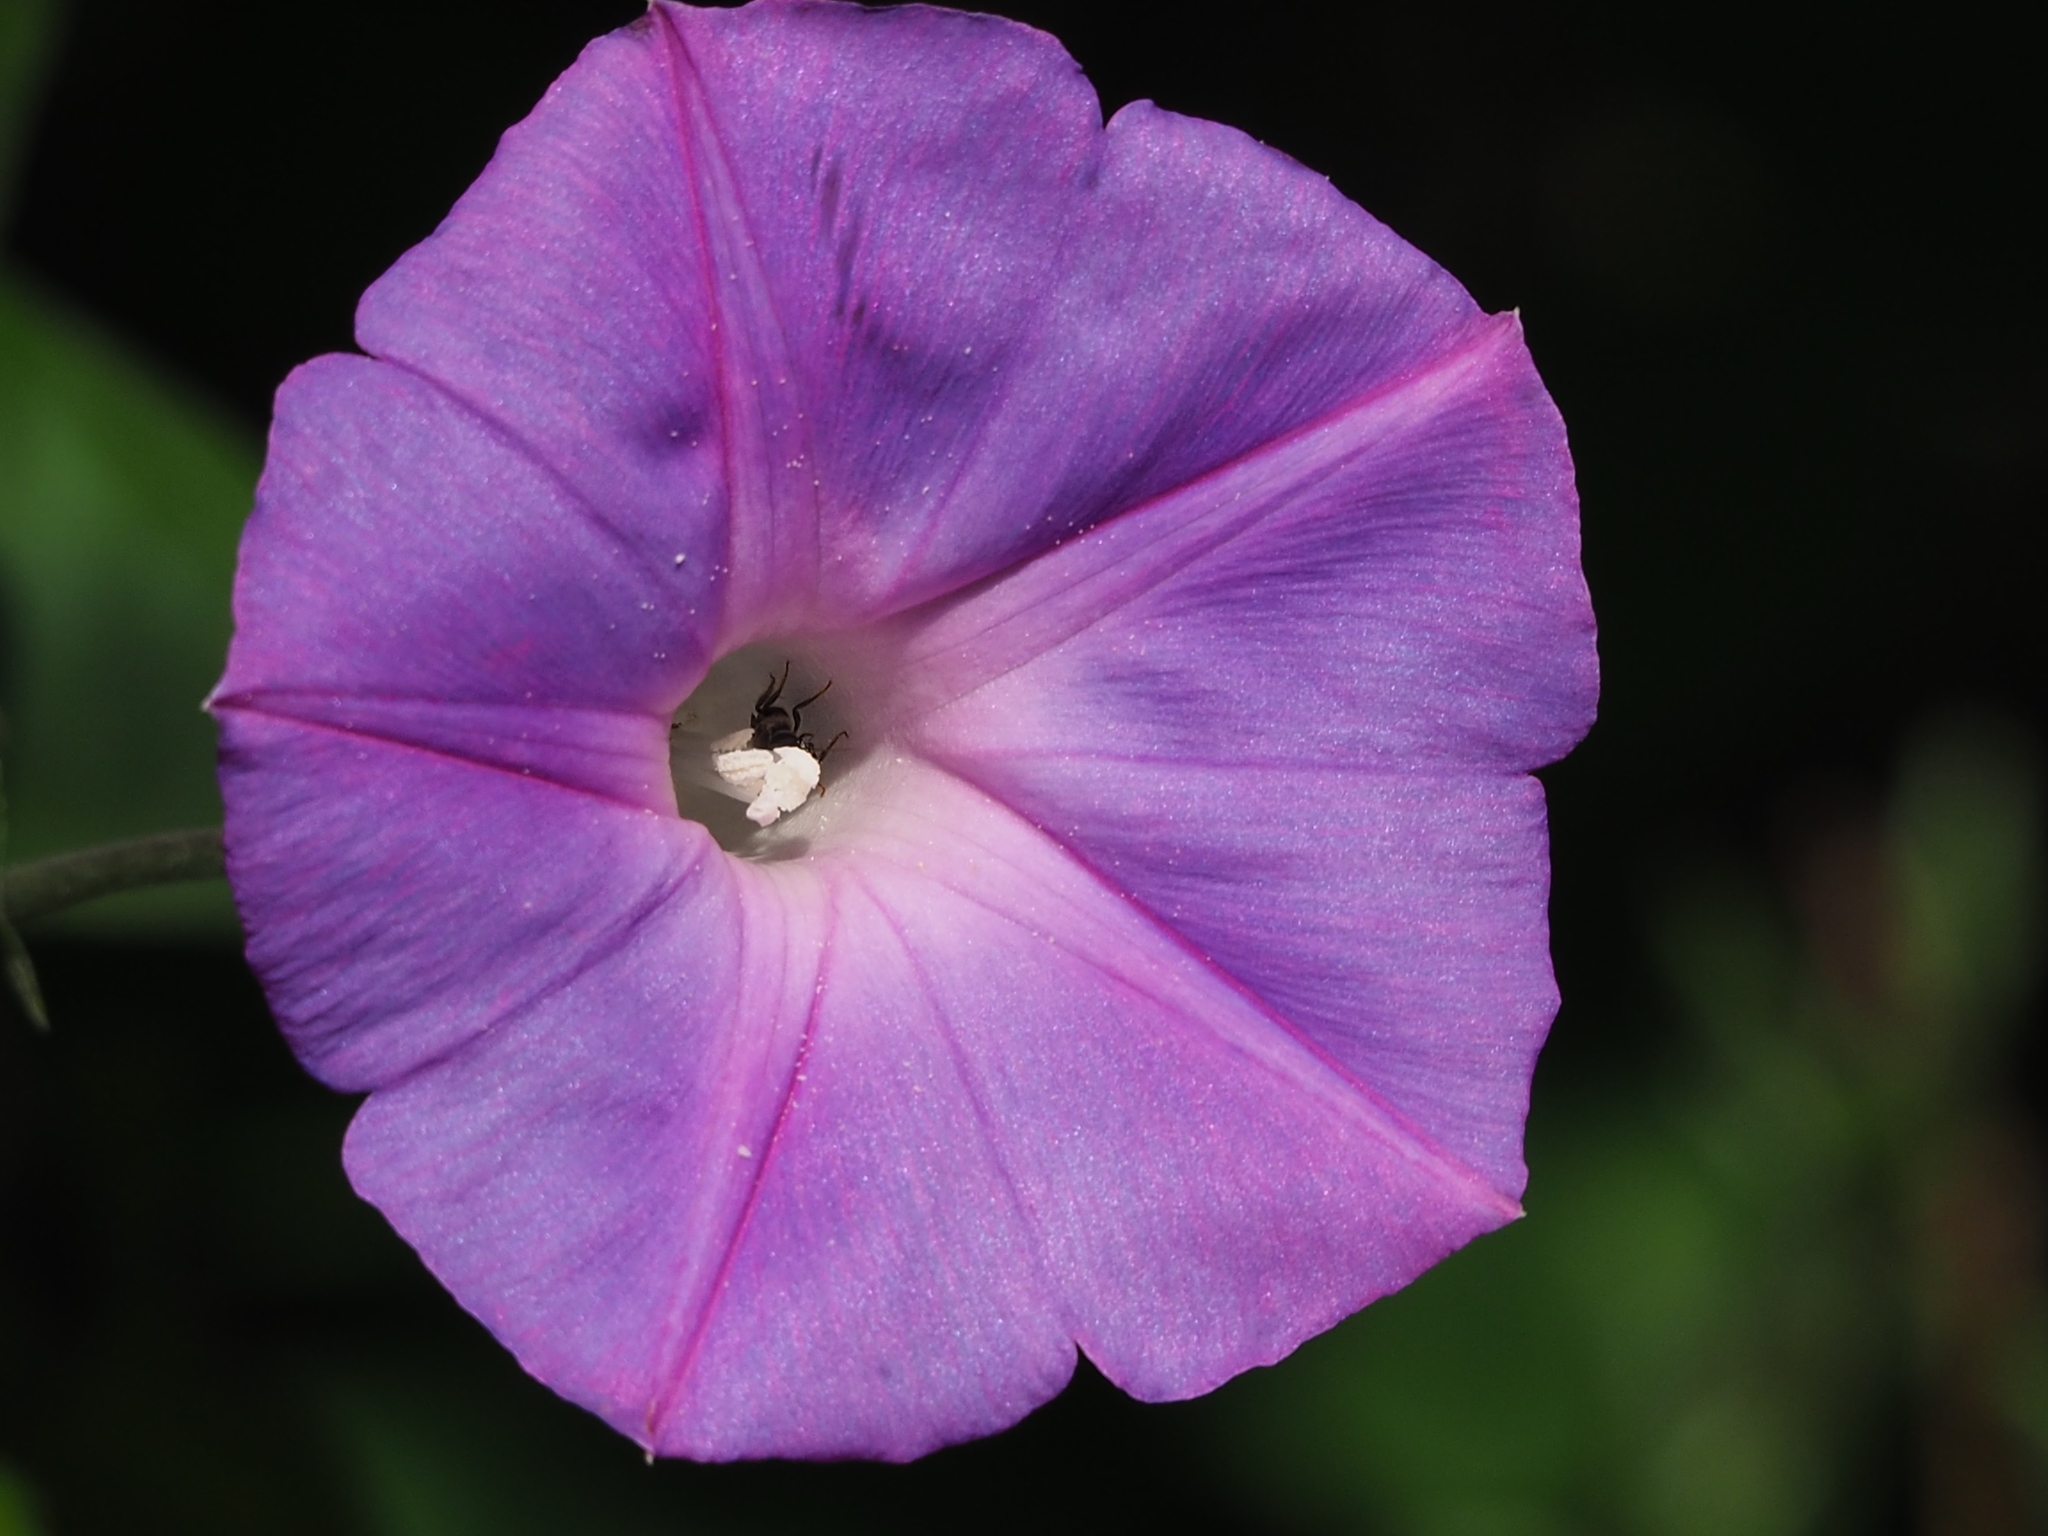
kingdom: Plantae
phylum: Tracheophyta
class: Magnoliopsida
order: Solanales
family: Convolvulaceae
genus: Ipomoea
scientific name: Ipomoea indica
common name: Blue dawnflower
